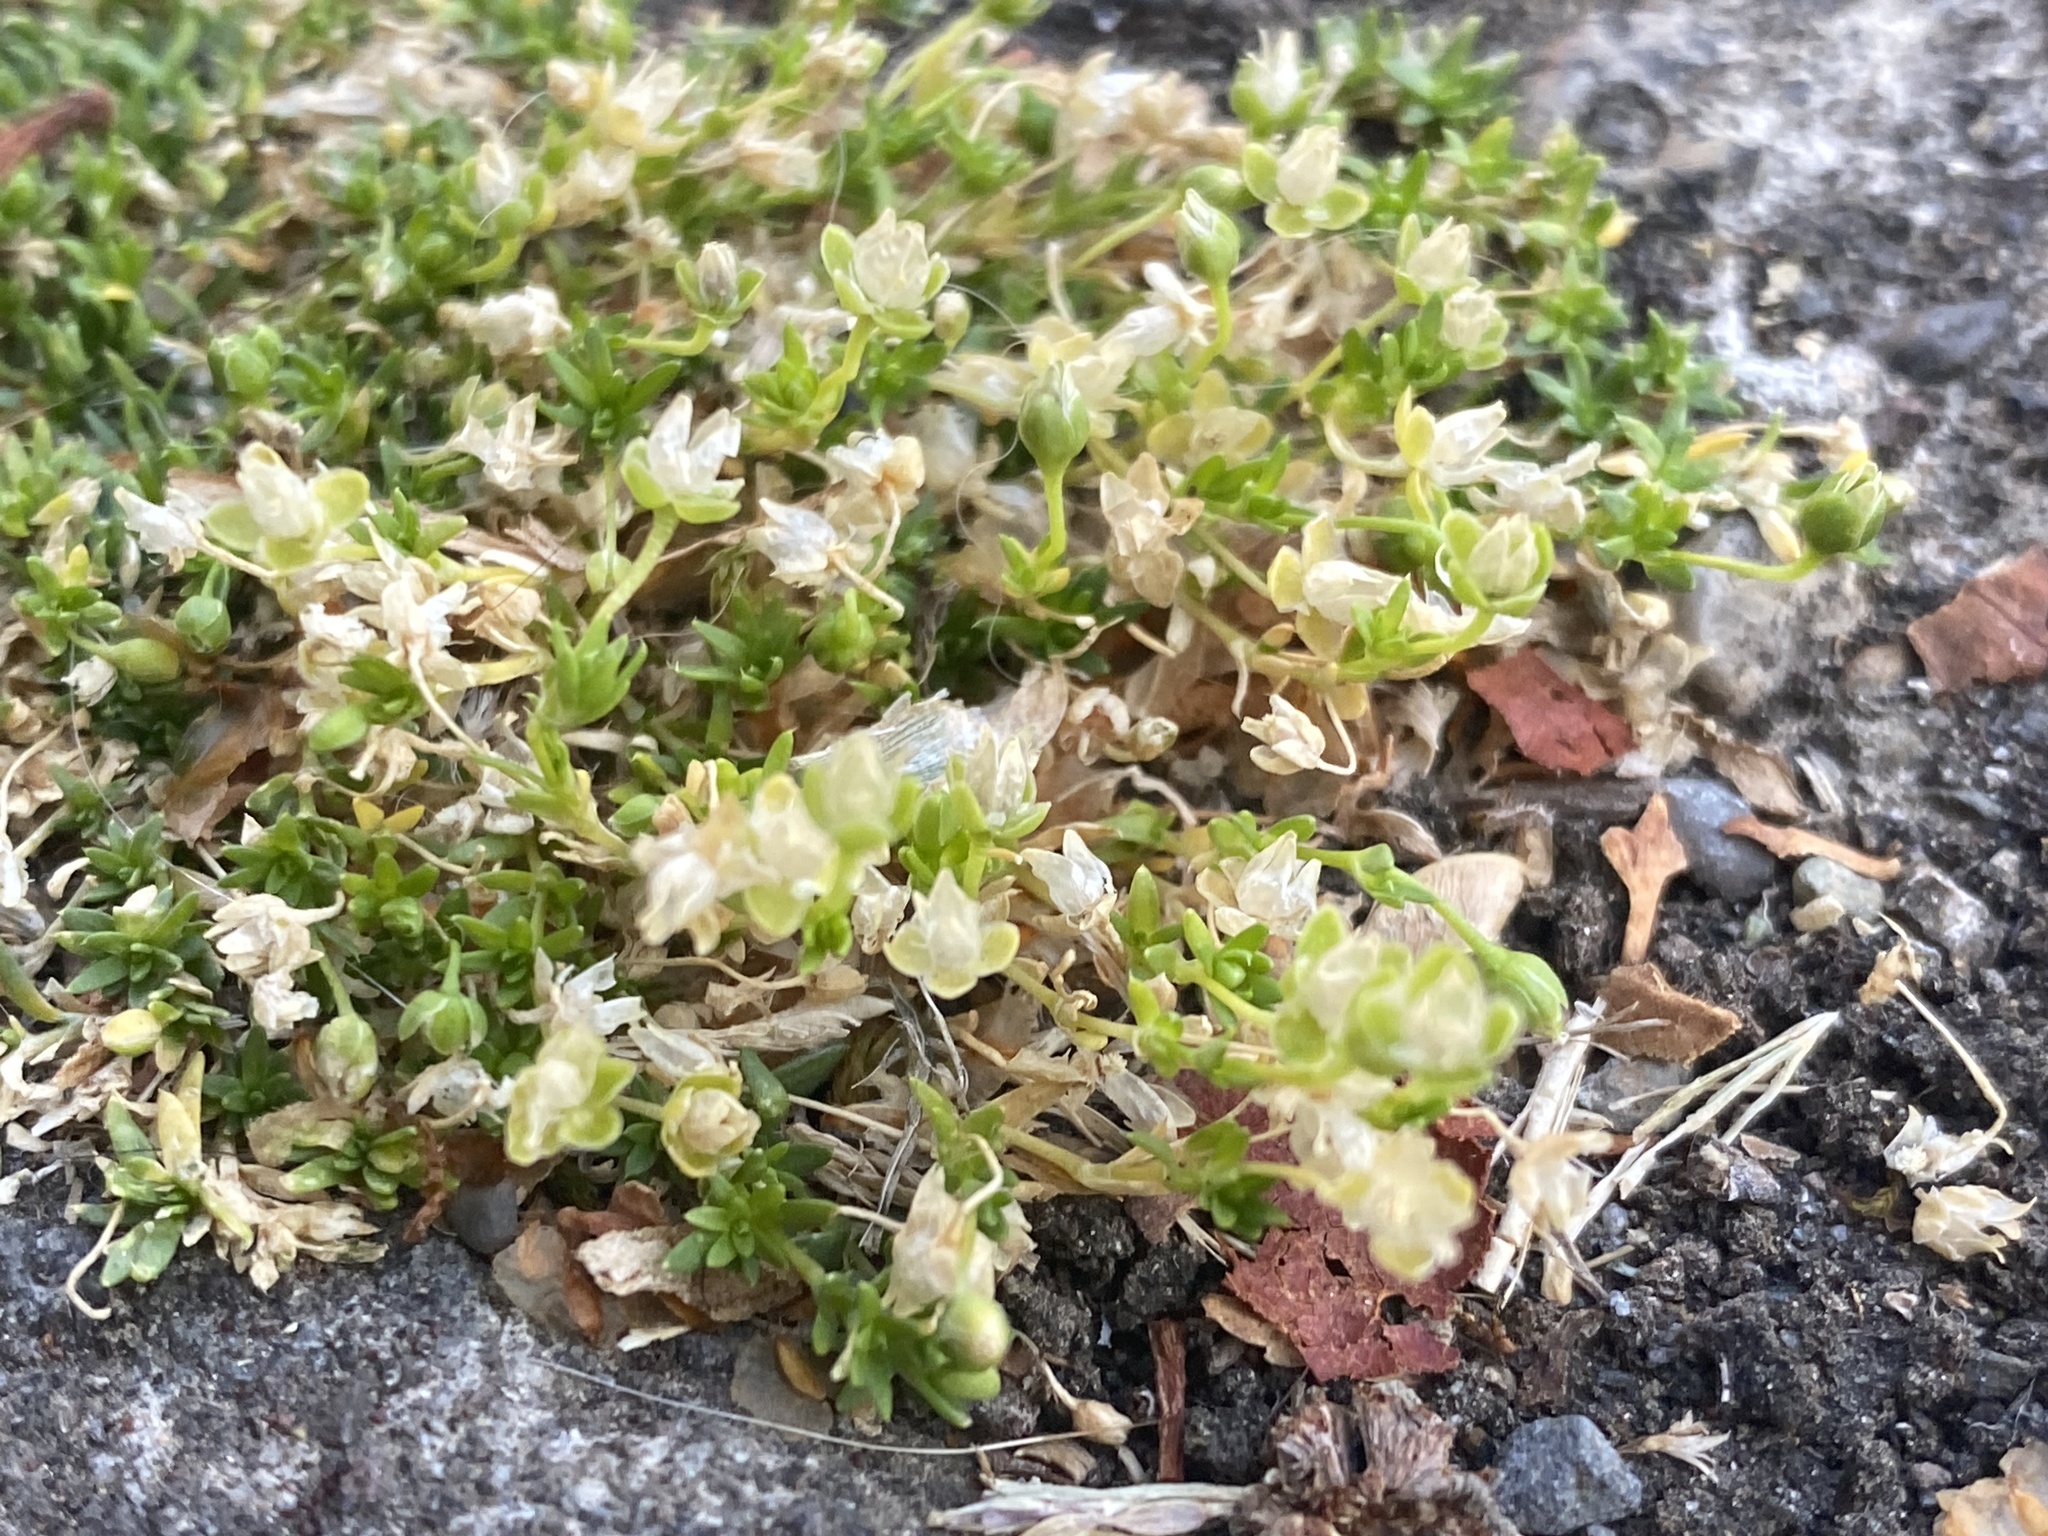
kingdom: Plantae
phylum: Tracheophyta
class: Magnoliopsida
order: Caryophyllales
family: Caryophyllaceae
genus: Sagina
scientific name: Sagina procumbens
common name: Procumbent pearlwort
